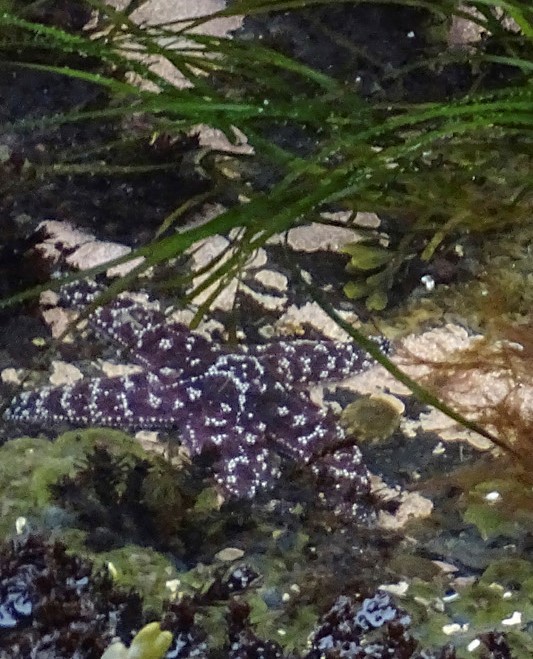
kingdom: Animalia
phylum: Echinodermata
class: Asteroidea
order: Forcipulatida
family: Asteriidae
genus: Pisaster
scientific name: Pisaster ochraceus
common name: Ochre stars
